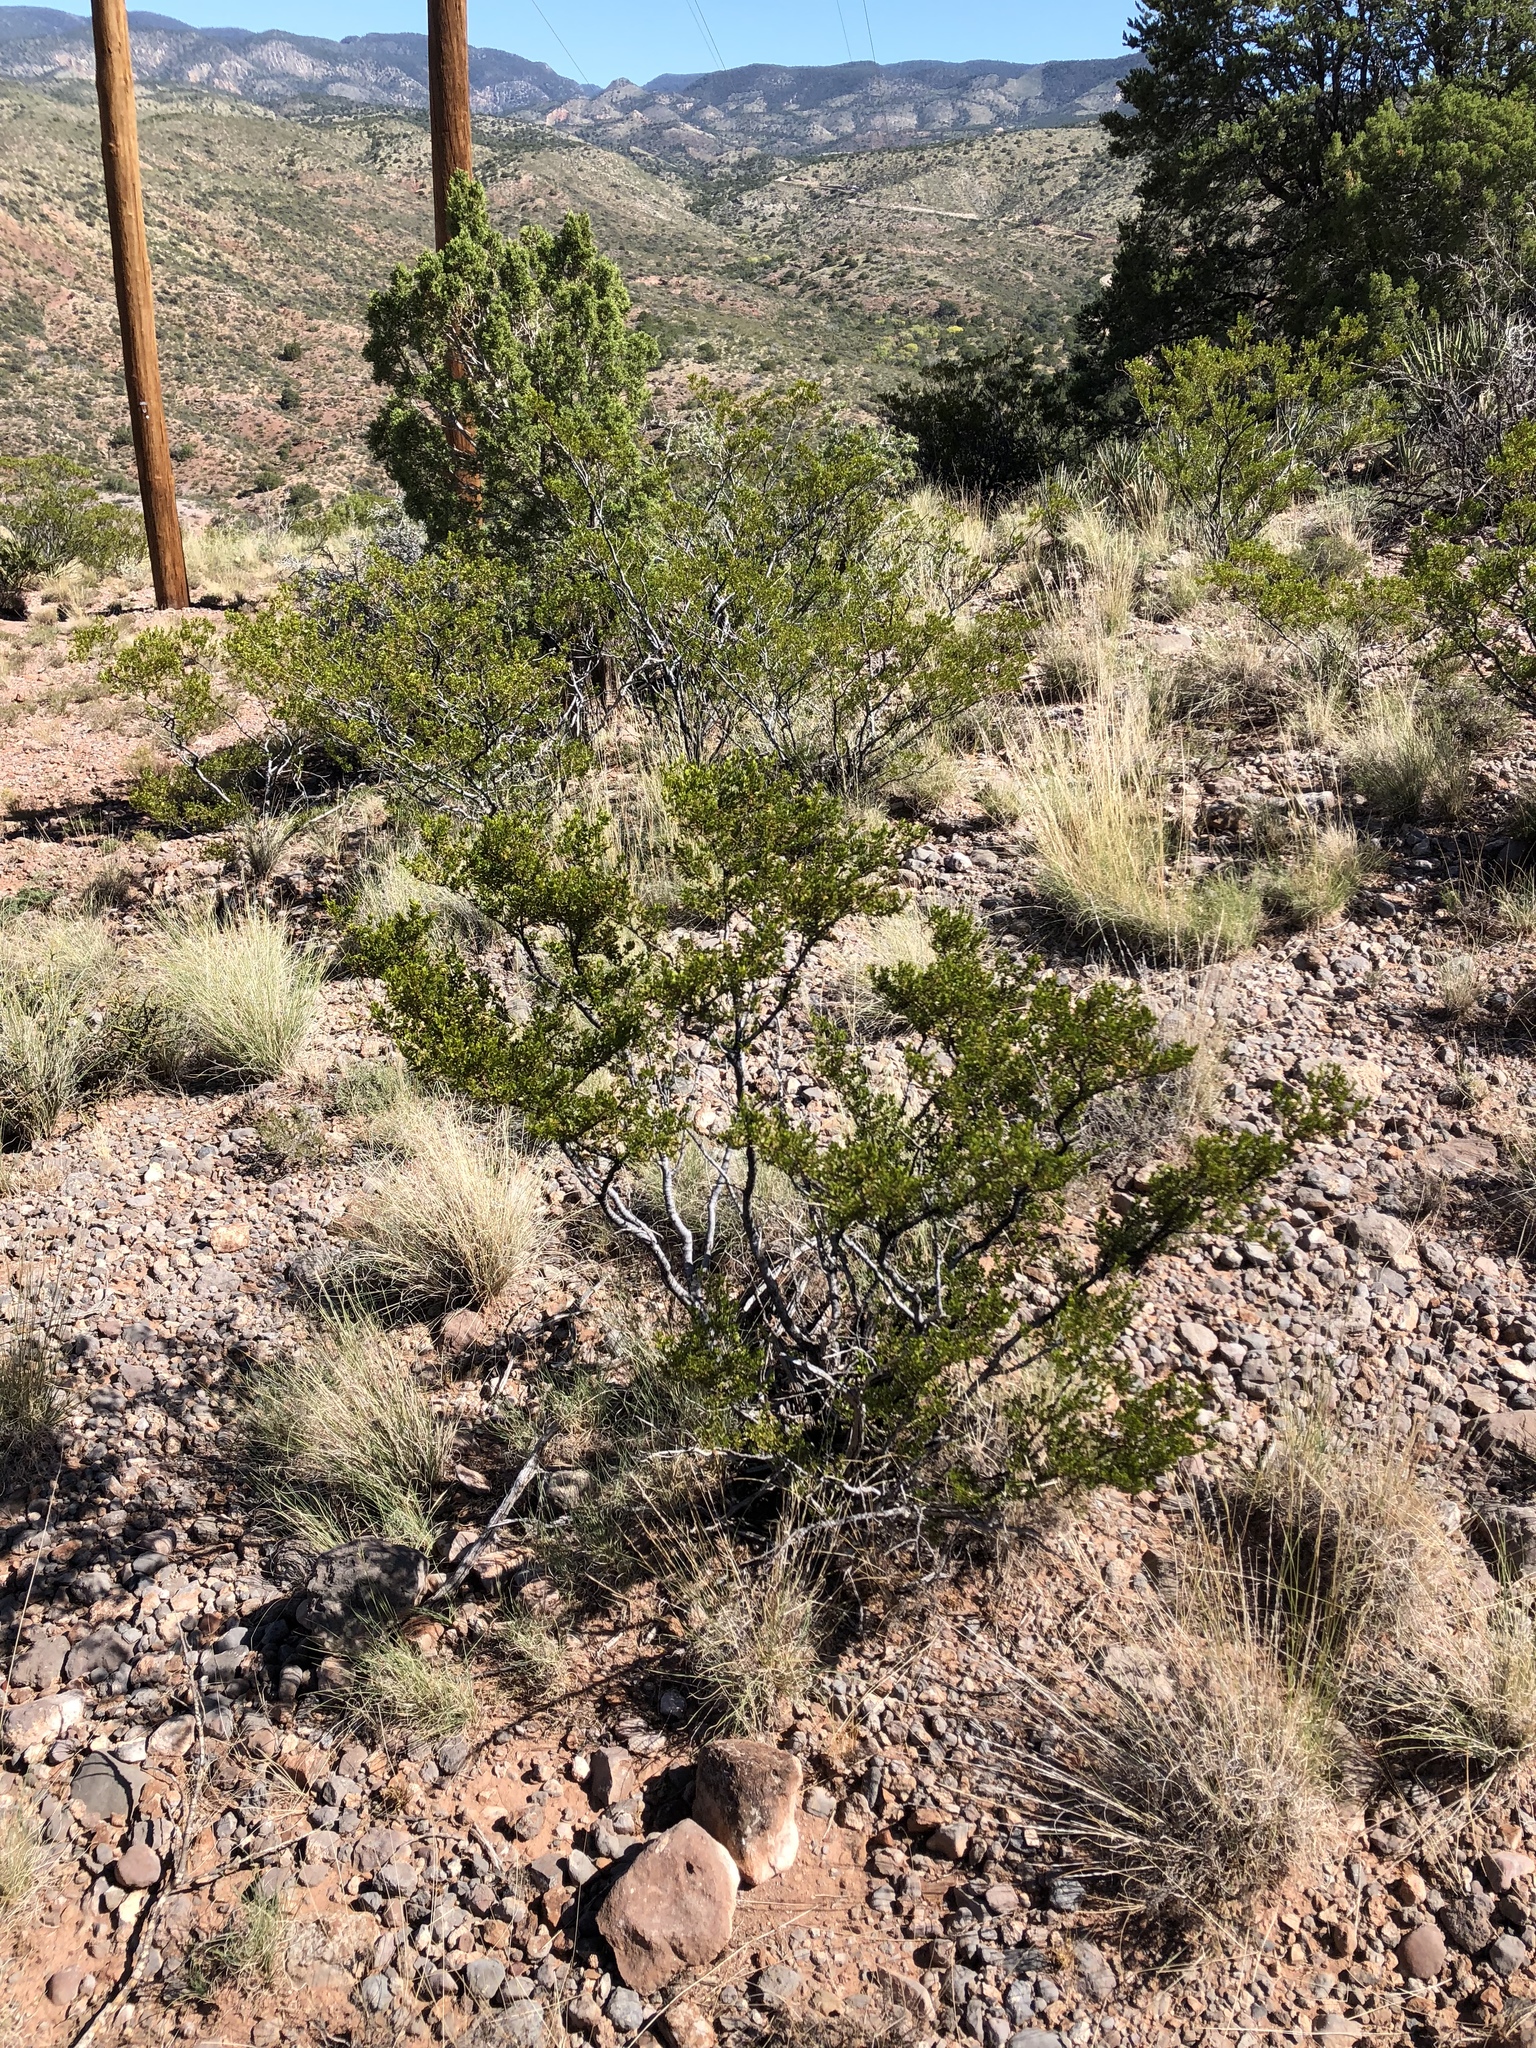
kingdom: Plantae
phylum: Tracheophyta
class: Magnoliopsida
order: Zygophyllales
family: Zygophyllaceae
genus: Larrea
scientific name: Larrea tridentata
